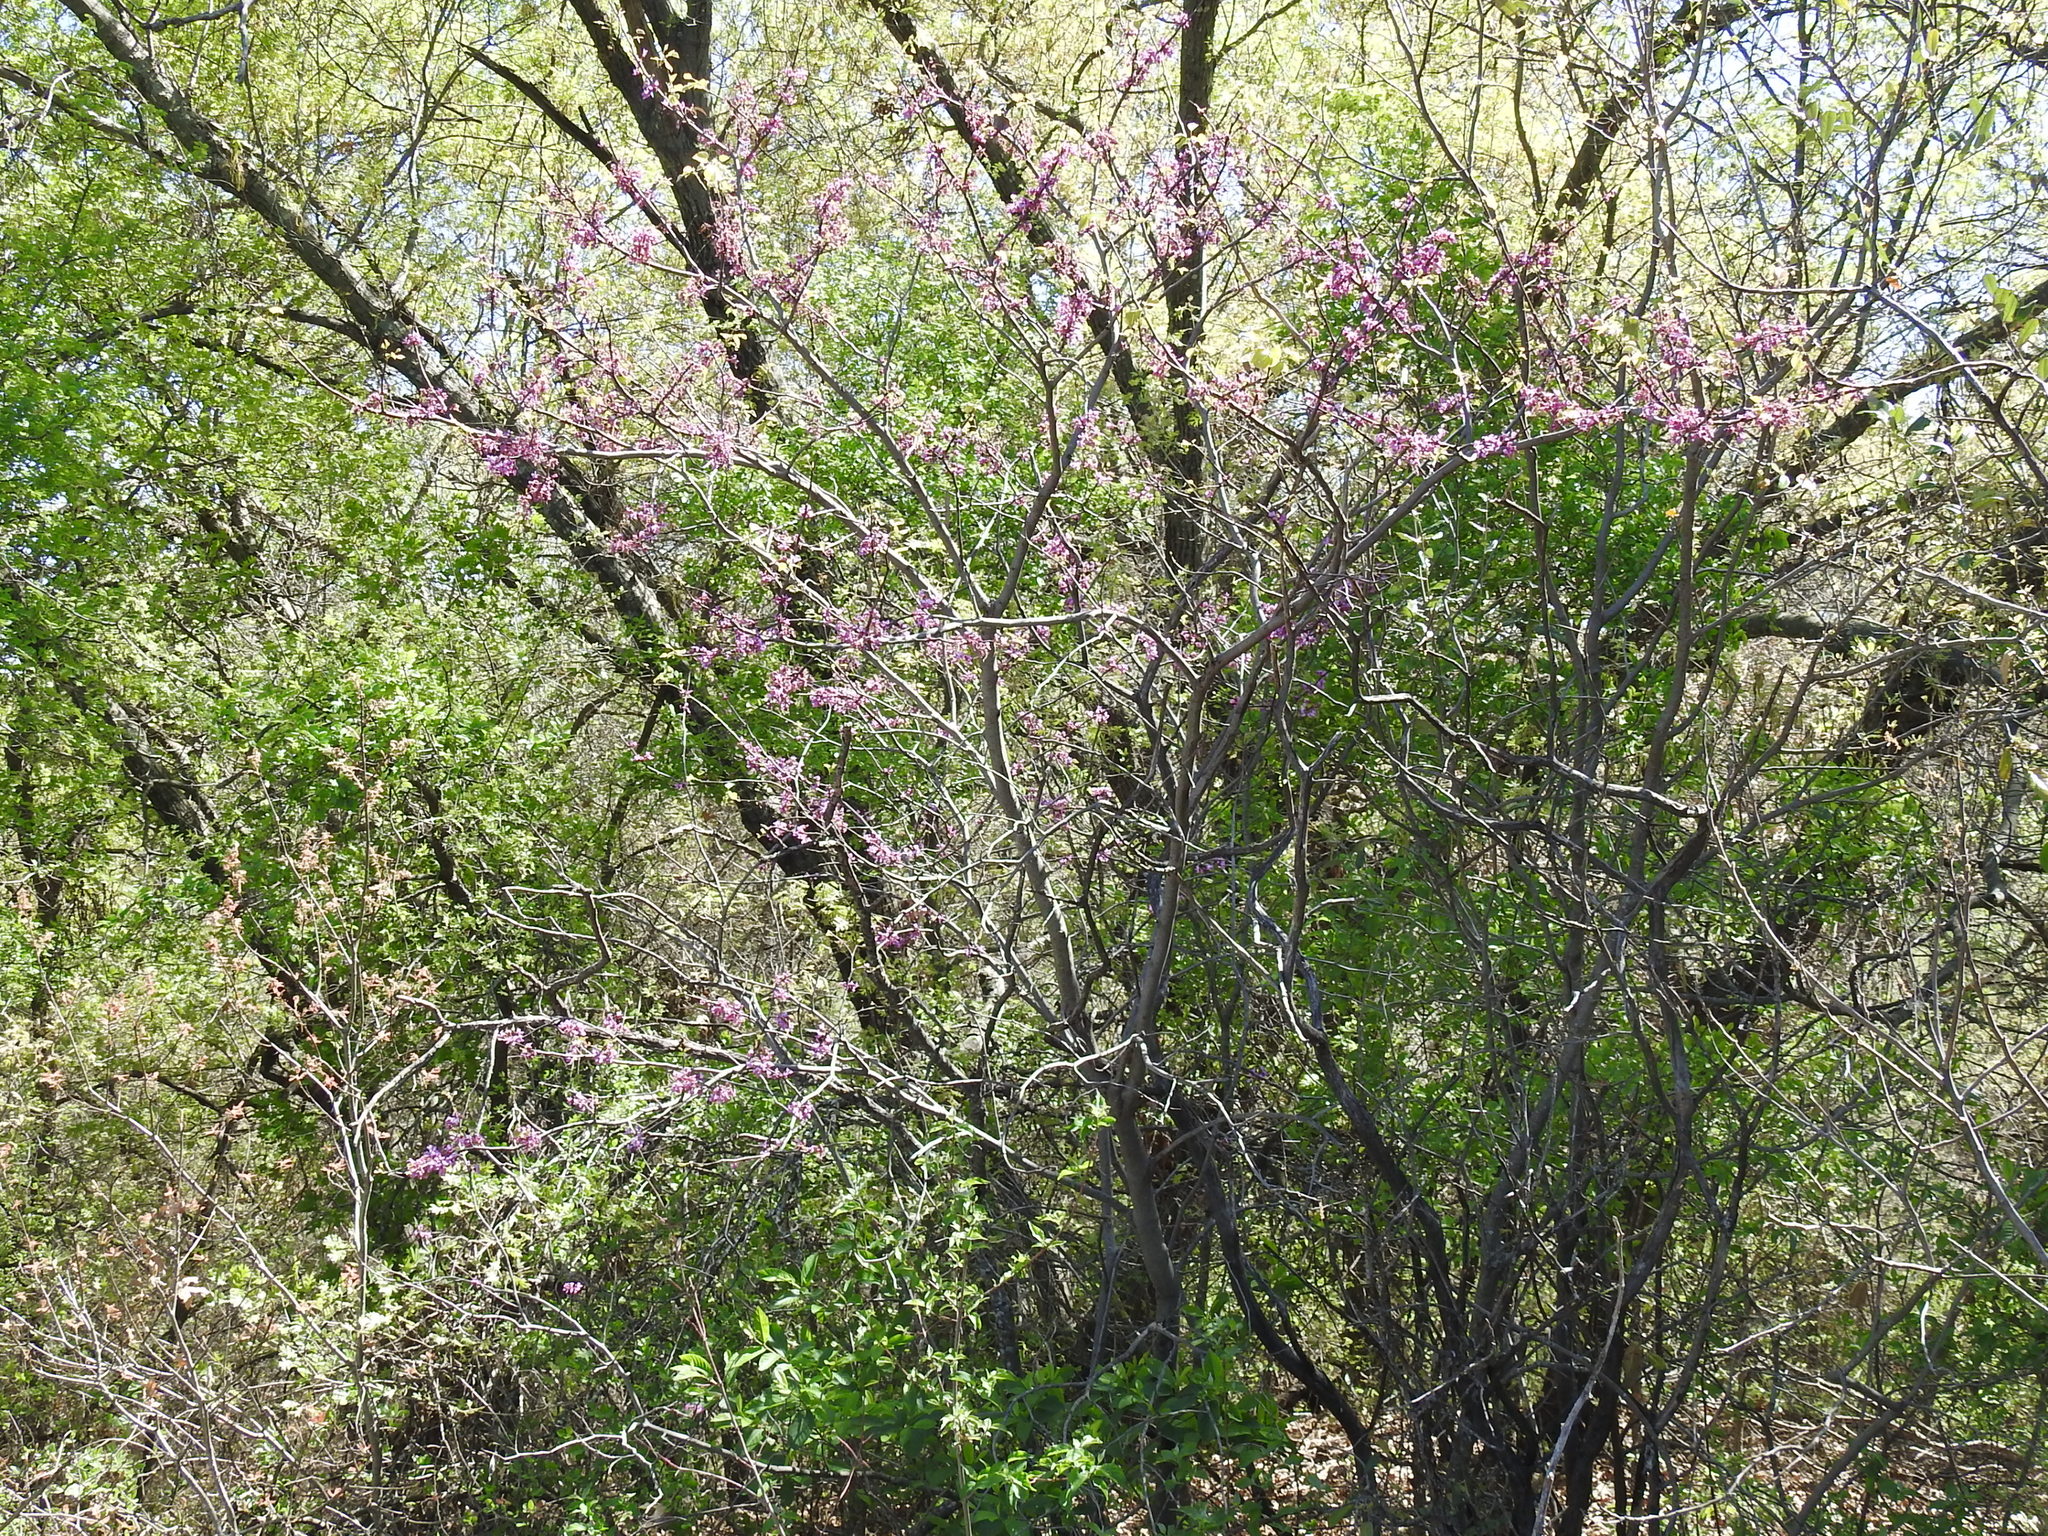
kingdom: Plantae
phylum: Tracheophyta
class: Magnoliopsida
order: Fabales
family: Fabaceae
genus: Cercis
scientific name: Cercis canadensis
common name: Eastern redbud
